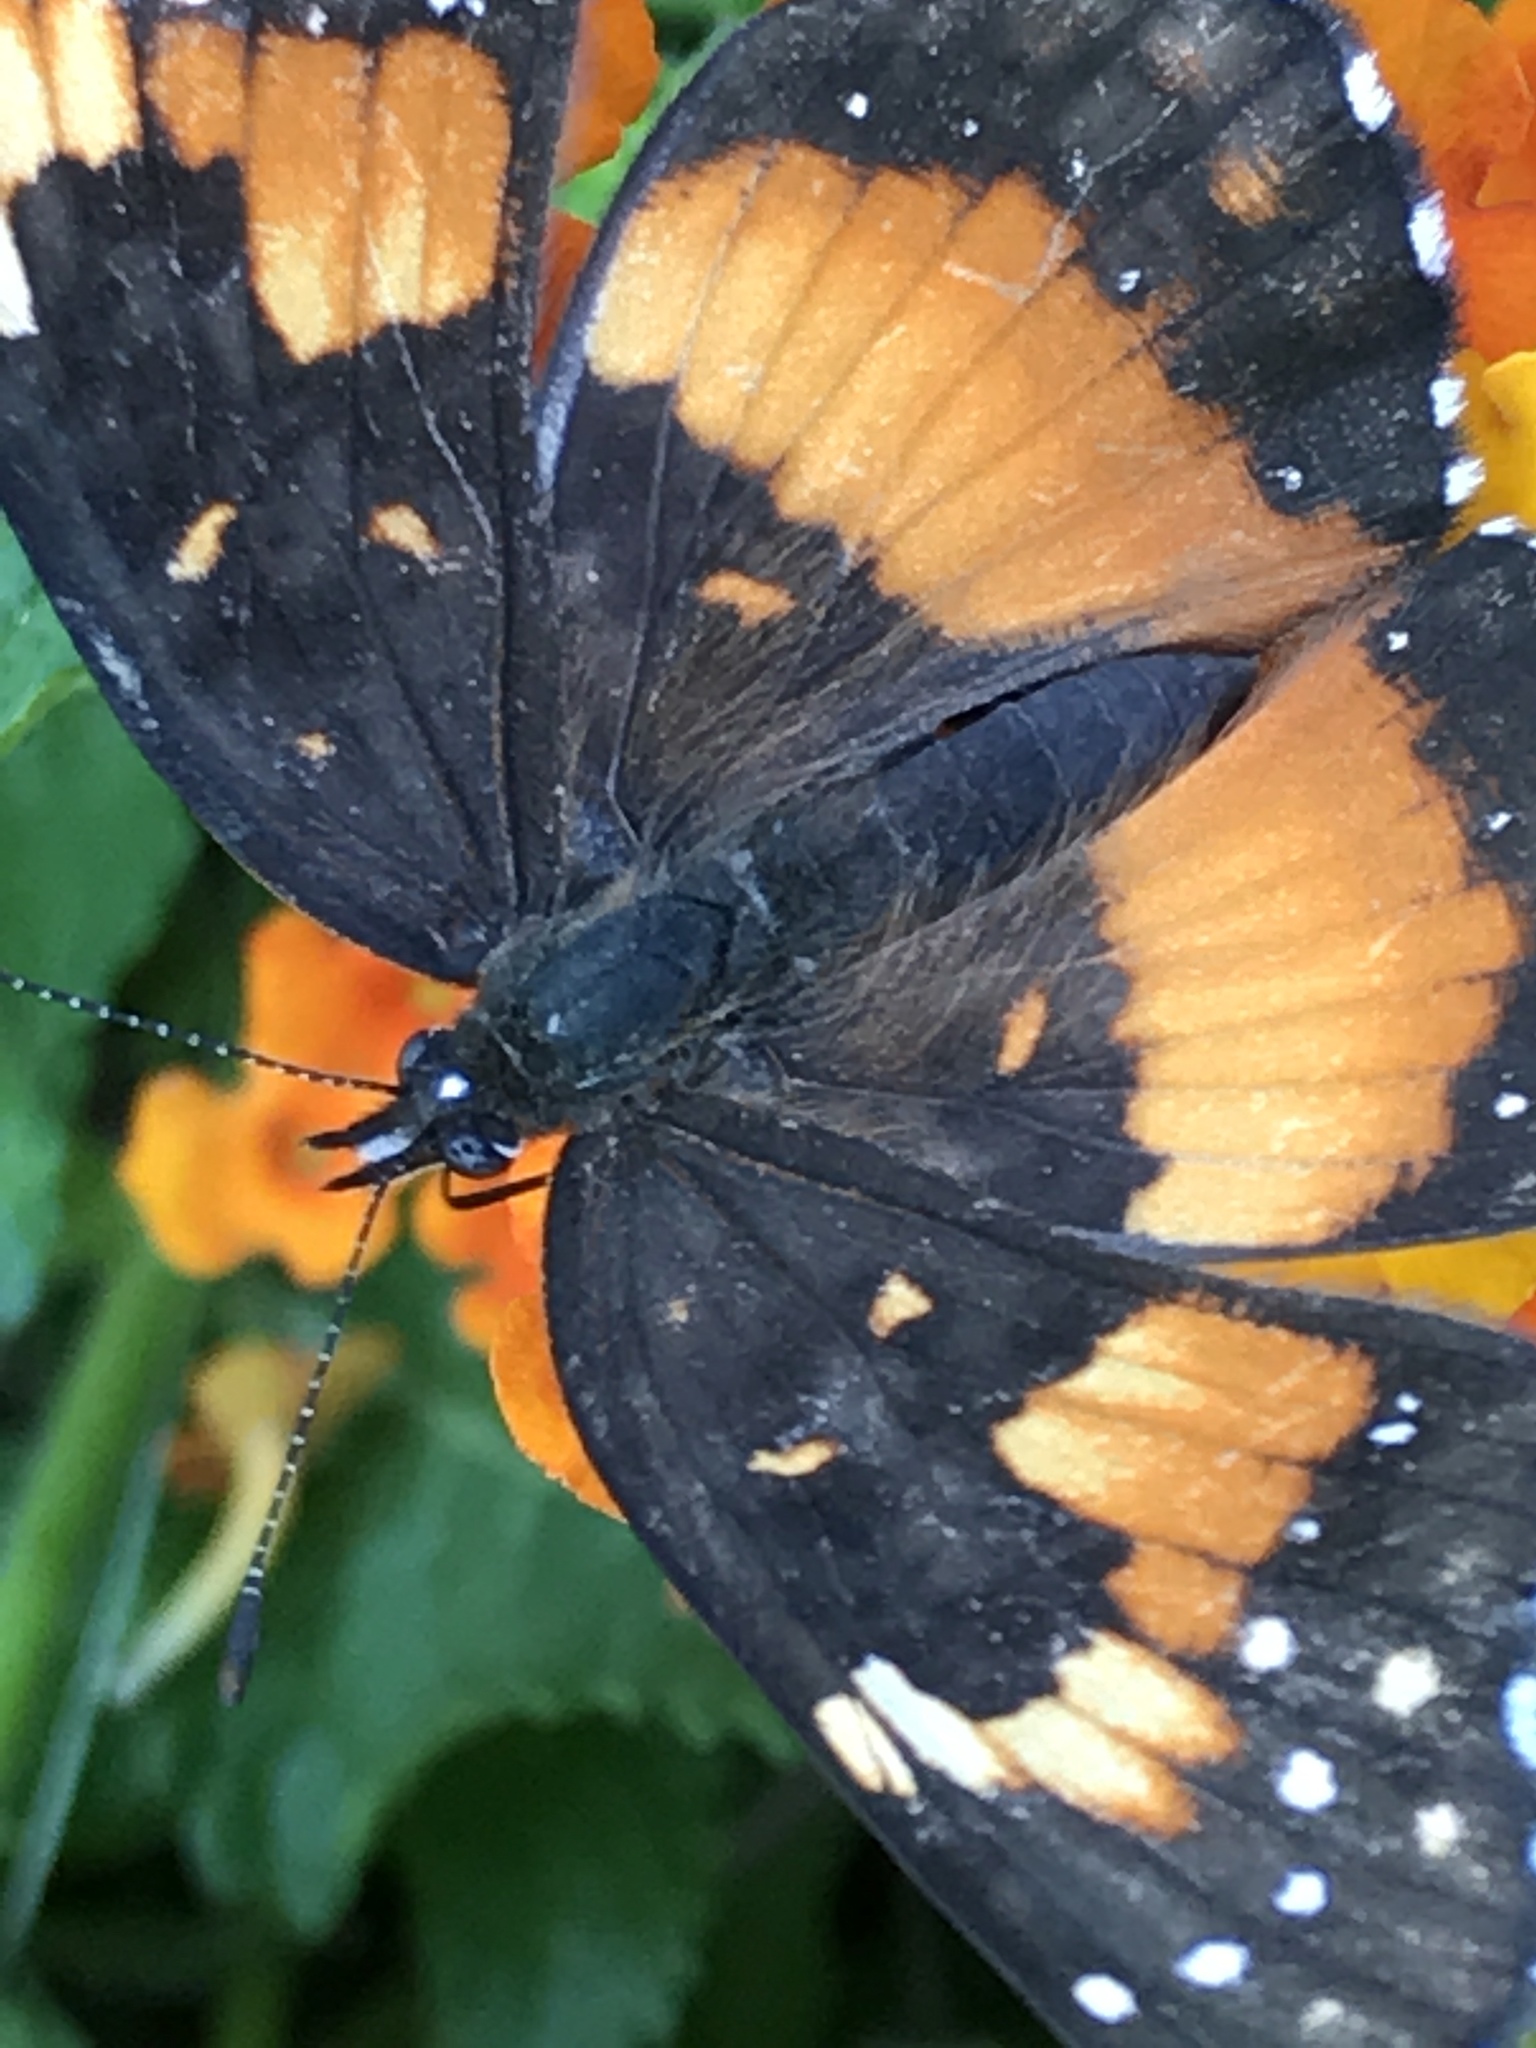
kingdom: Animalia
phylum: Arthropoda
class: Insecta
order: Lepidoptera
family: Nymphalidae
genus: Chlosyne
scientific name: Chlosyne lacinia
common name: Bordered patch
